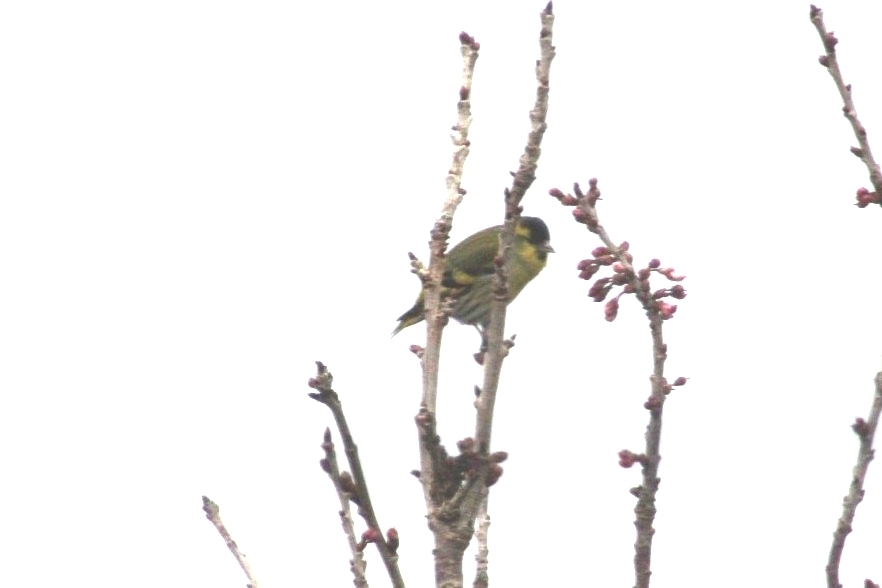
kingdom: Animalia
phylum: Chordata
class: Aves
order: Passeriformes
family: Fringillidae
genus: Spinus
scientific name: Spinus spinus
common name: Eurasian siskin
